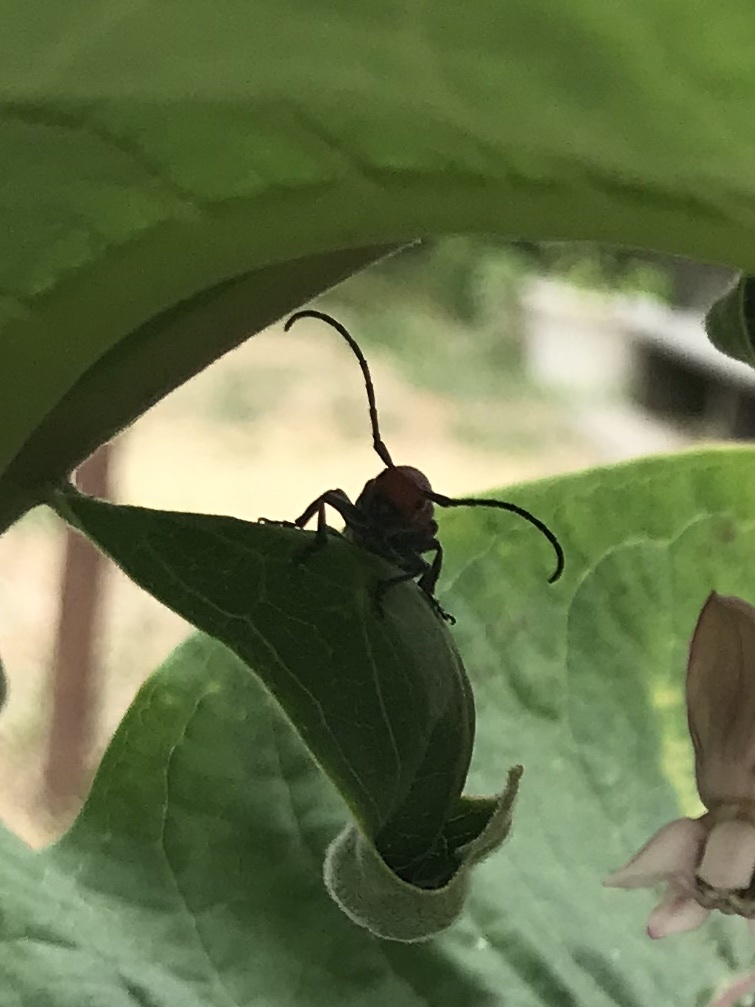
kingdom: Animalia
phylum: Arthropoda
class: Insecta
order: Coleoptera
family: Cerambycidae
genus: Tetraopes
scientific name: Tetraopes tetrophthalmus
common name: Red milkweed beetle
